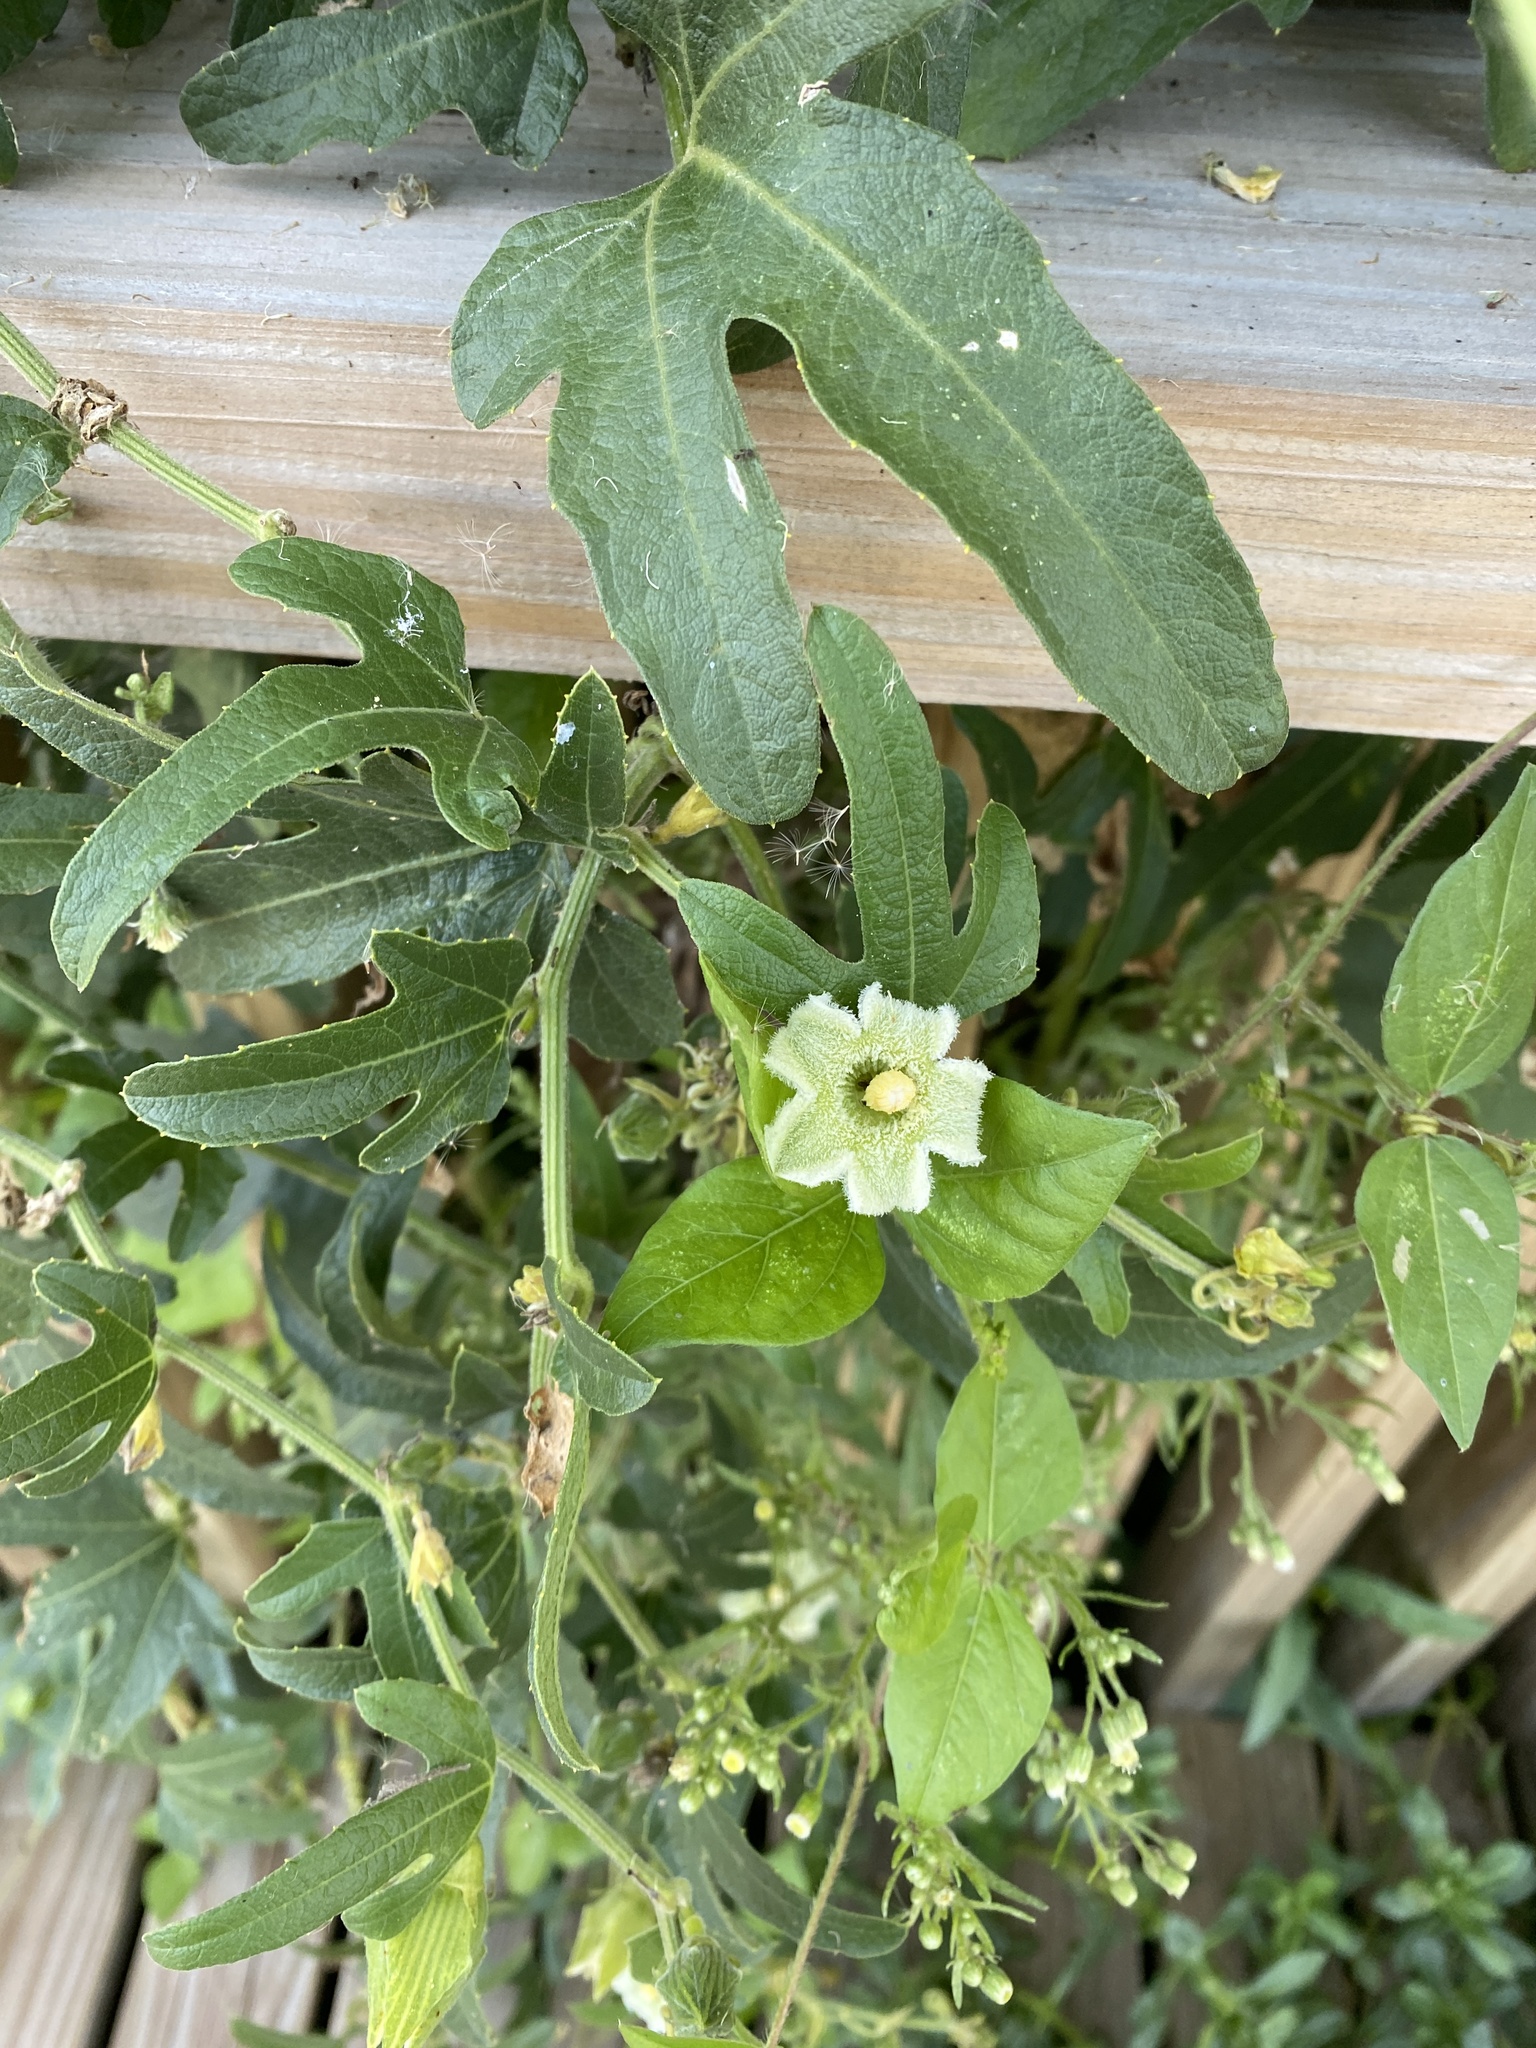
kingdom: Plantae
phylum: Tracheophyta
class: Magnoliopsida
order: Cucurbitales
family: Cucurbitaceae
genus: Cayaponia
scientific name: Cayaponia podantha
